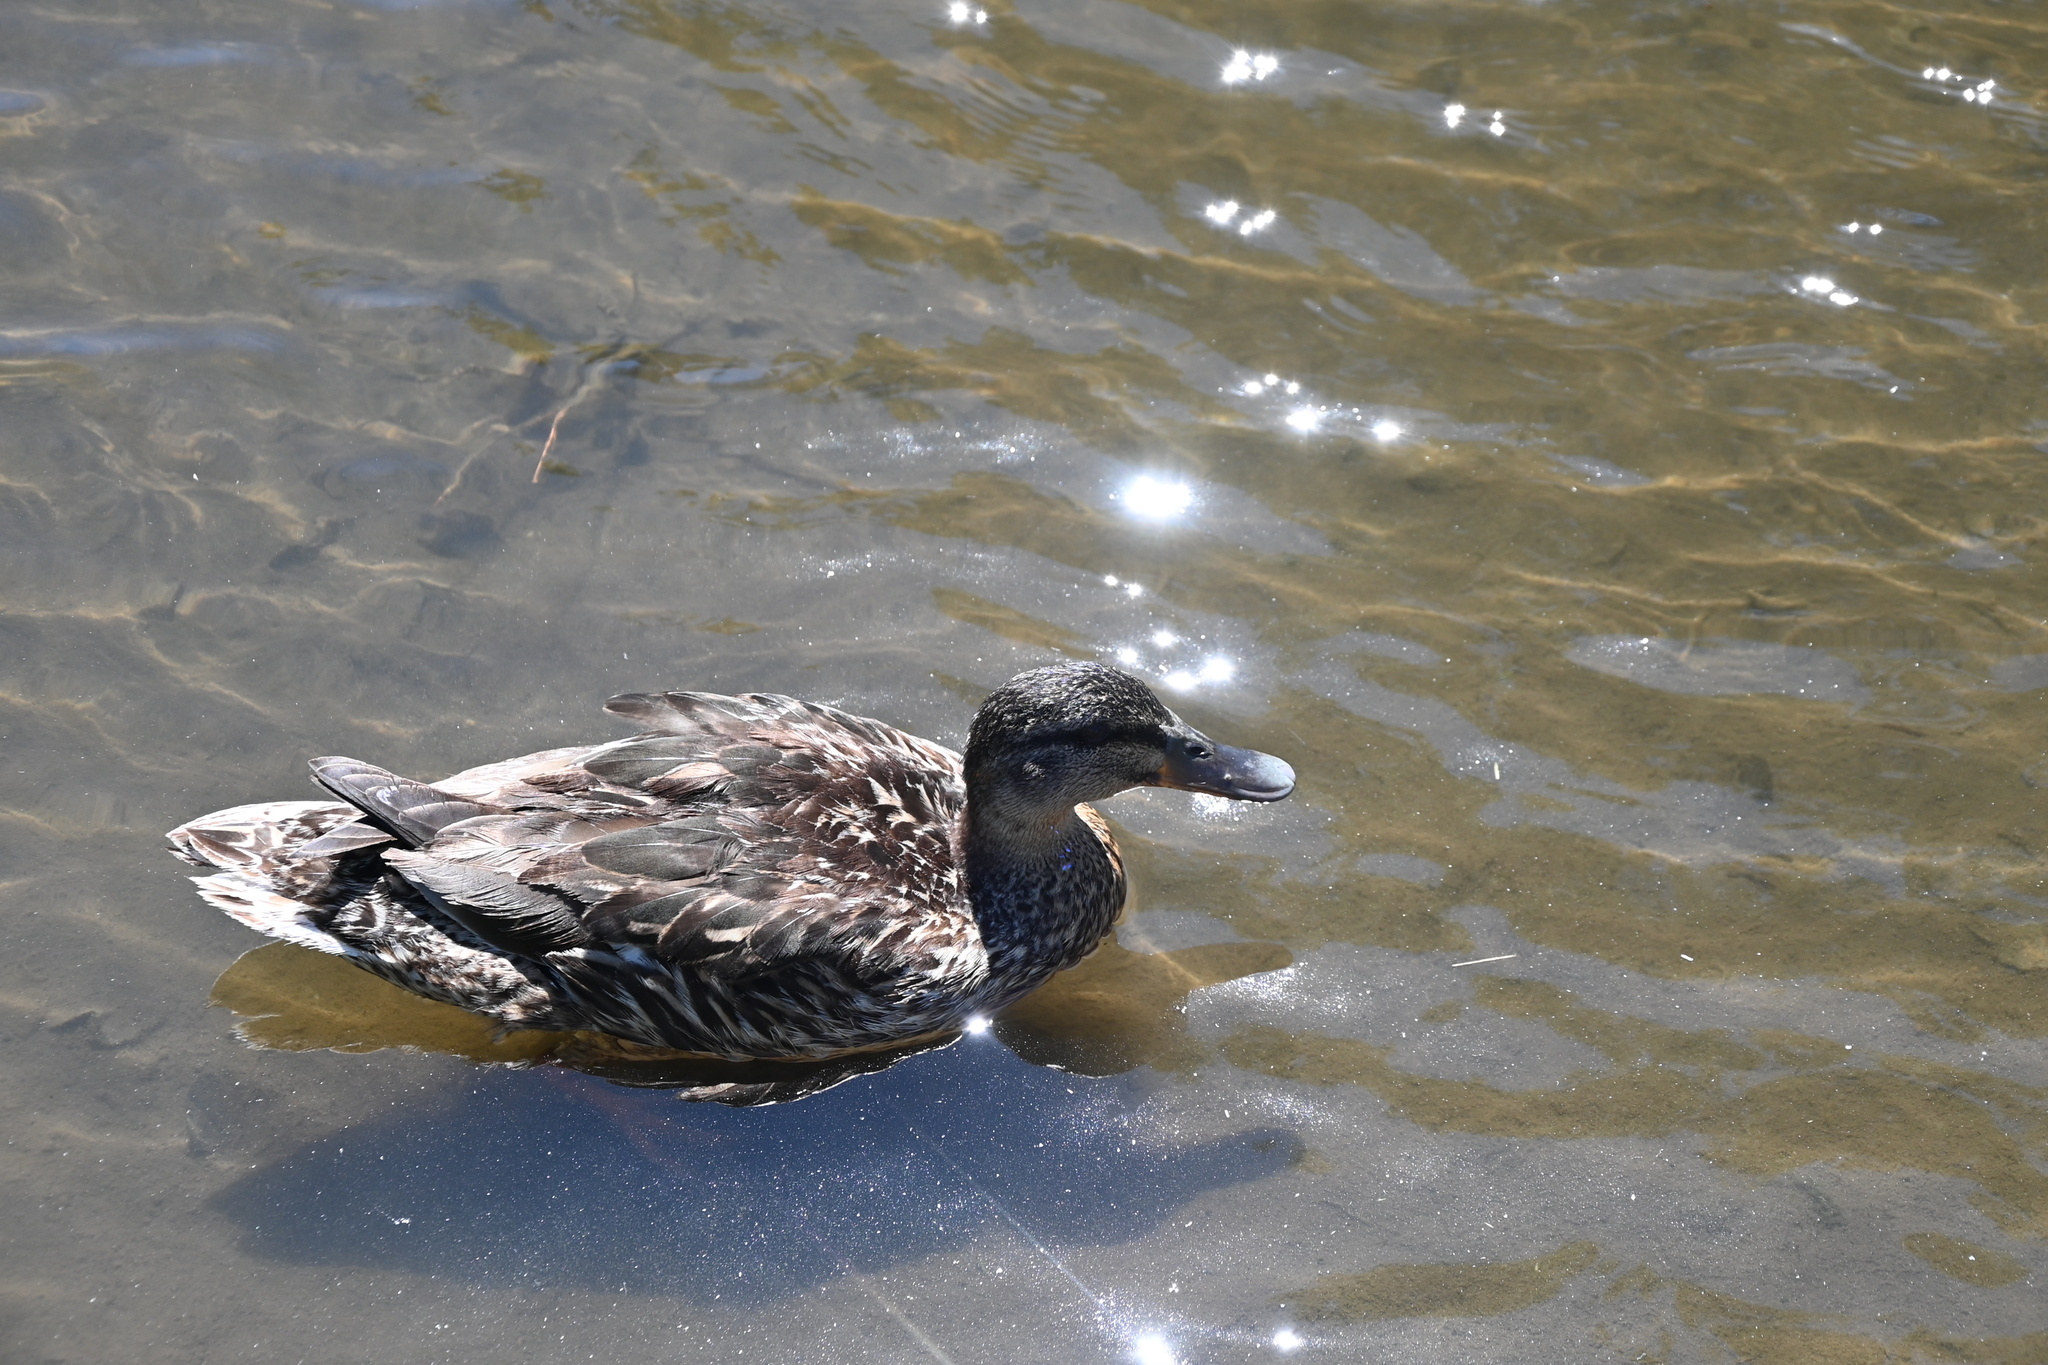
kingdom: Animalia
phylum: Chordata
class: Aves
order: Anseriformes
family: Anatidae
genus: Anas
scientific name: Anas platyrhynchos
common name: Mallard
